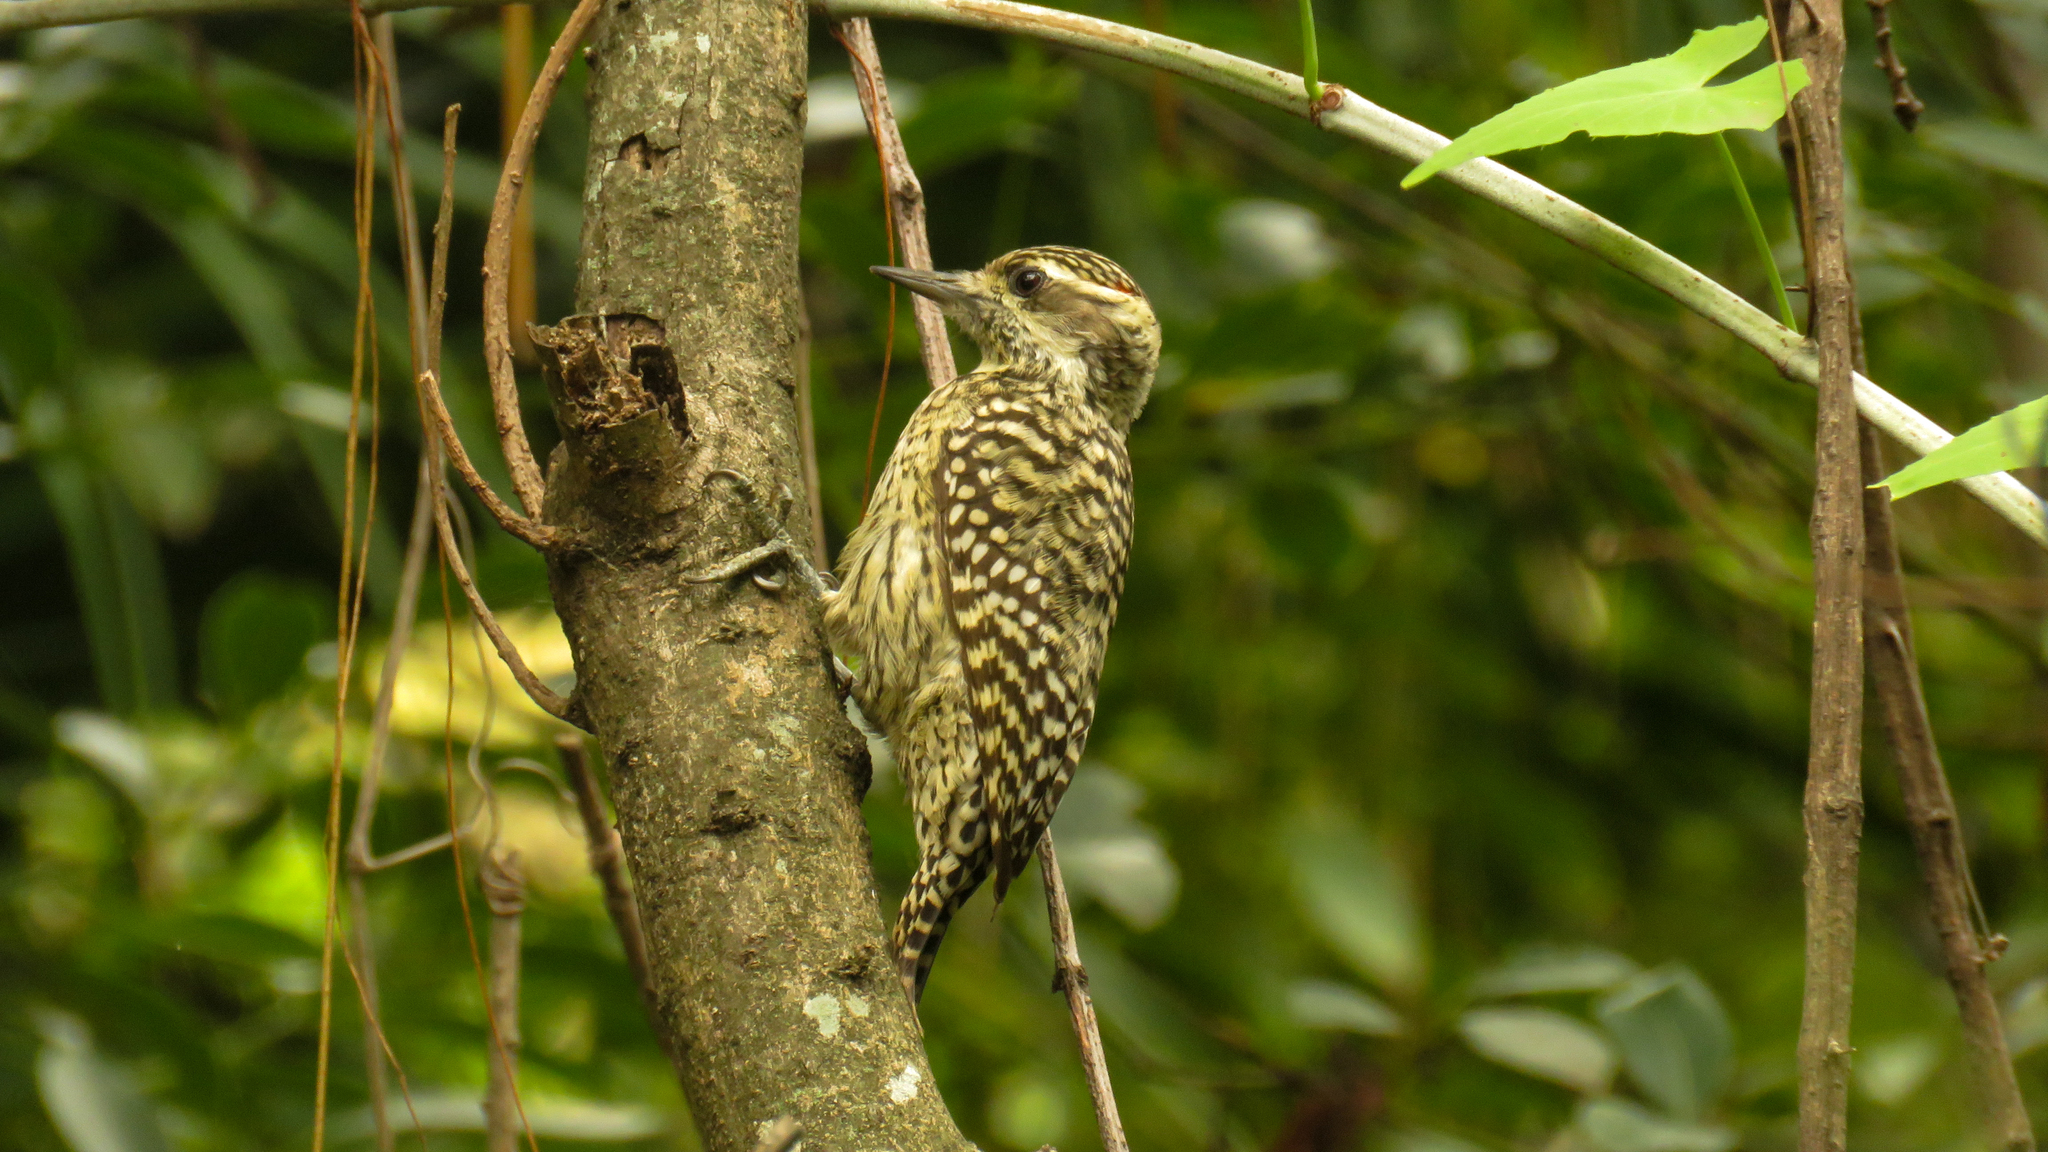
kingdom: Animalia
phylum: Chordata
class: Aves
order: Piciformes
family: Picidae
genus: Veniliornis
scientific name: Veniliornis mixtus
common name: Checkered woodpecker
